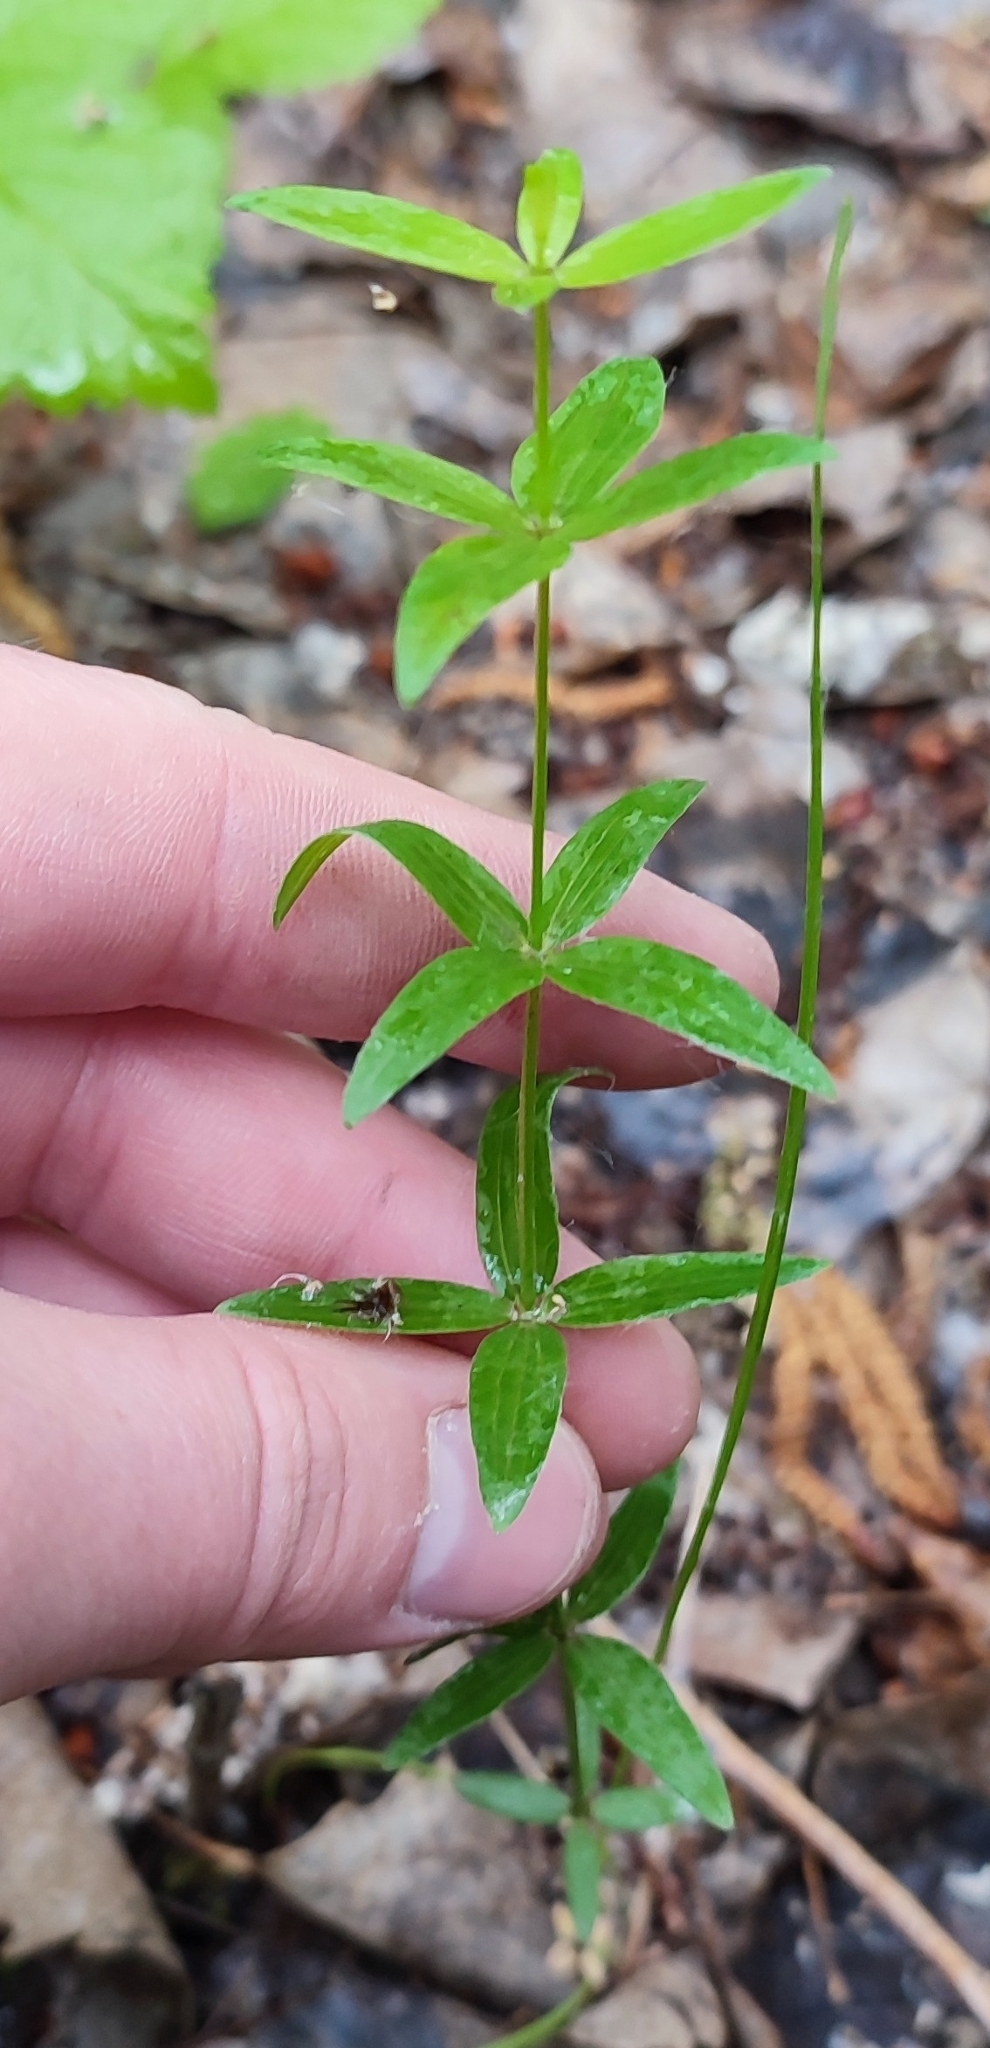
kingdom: Plantae
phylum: Tracheophyta
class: Magnoliopsida
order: Gentianales
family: Rubiaceae
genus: Galium
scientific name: Galium boreale
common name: Northern bedstraw
